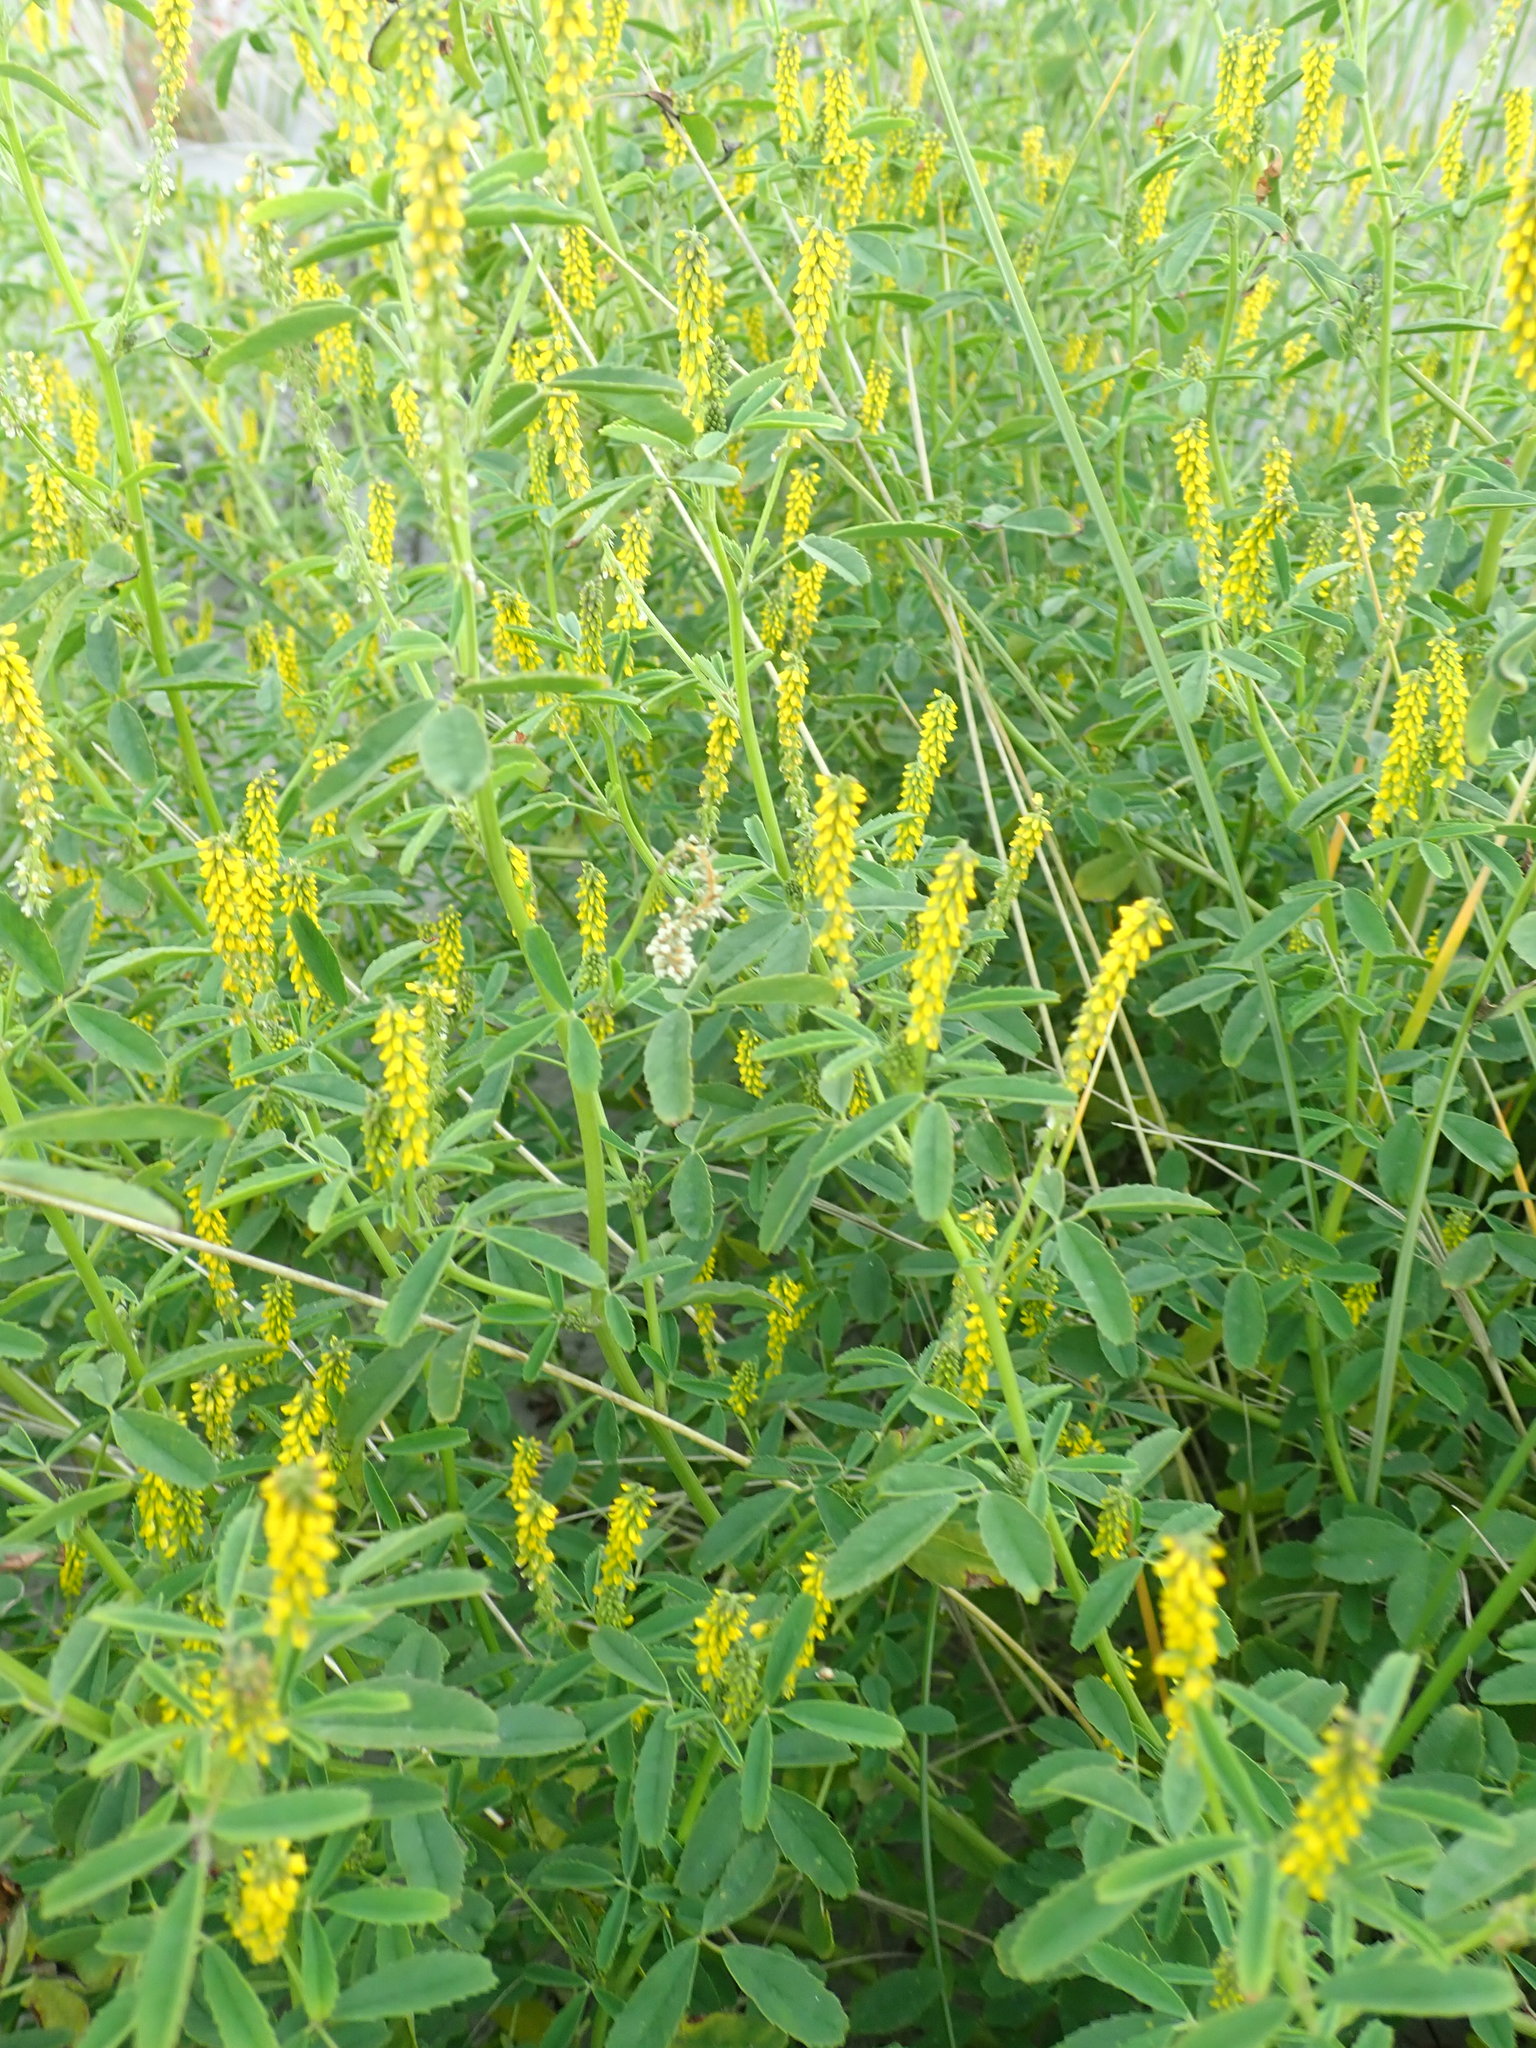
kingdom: Plantae
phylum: Tracheophyta
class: Magnoliopsida
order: Fabales
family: Fabaceae
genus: Melilotus
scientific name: Melilotus indicus
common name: Small melilot
